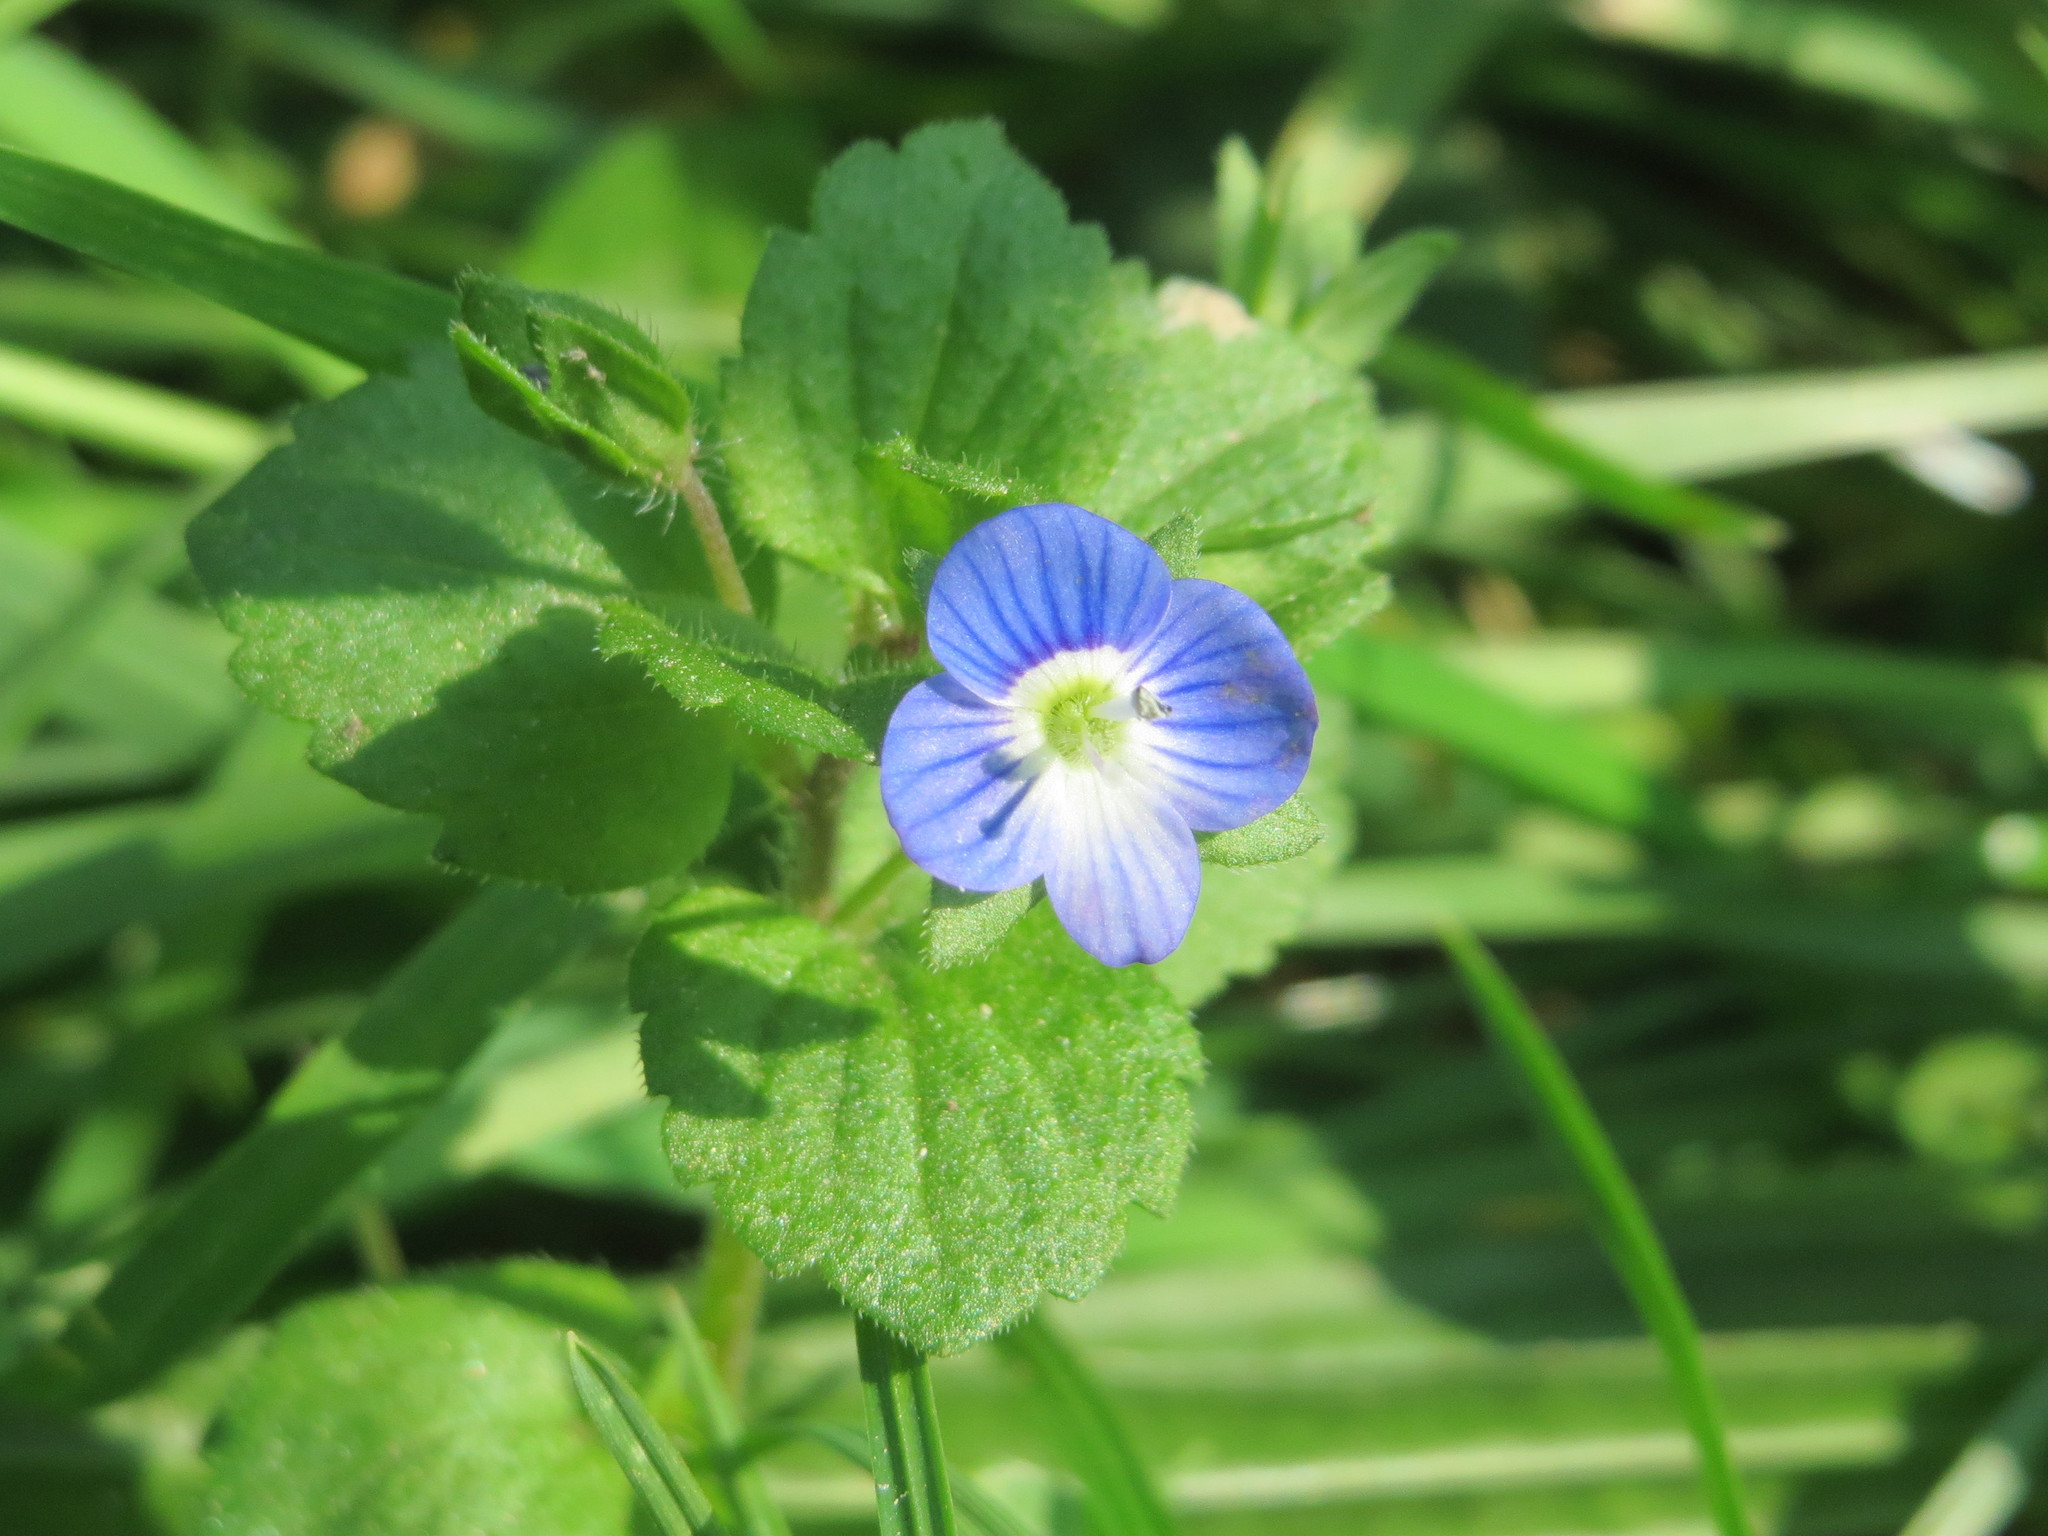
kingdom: Plantae
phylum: Tracheophyta
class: Magnoliopsida
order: Lamiales
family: Plantaginaceae
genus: Veronica
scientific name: Veronica persica
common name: Common field-speedwell
